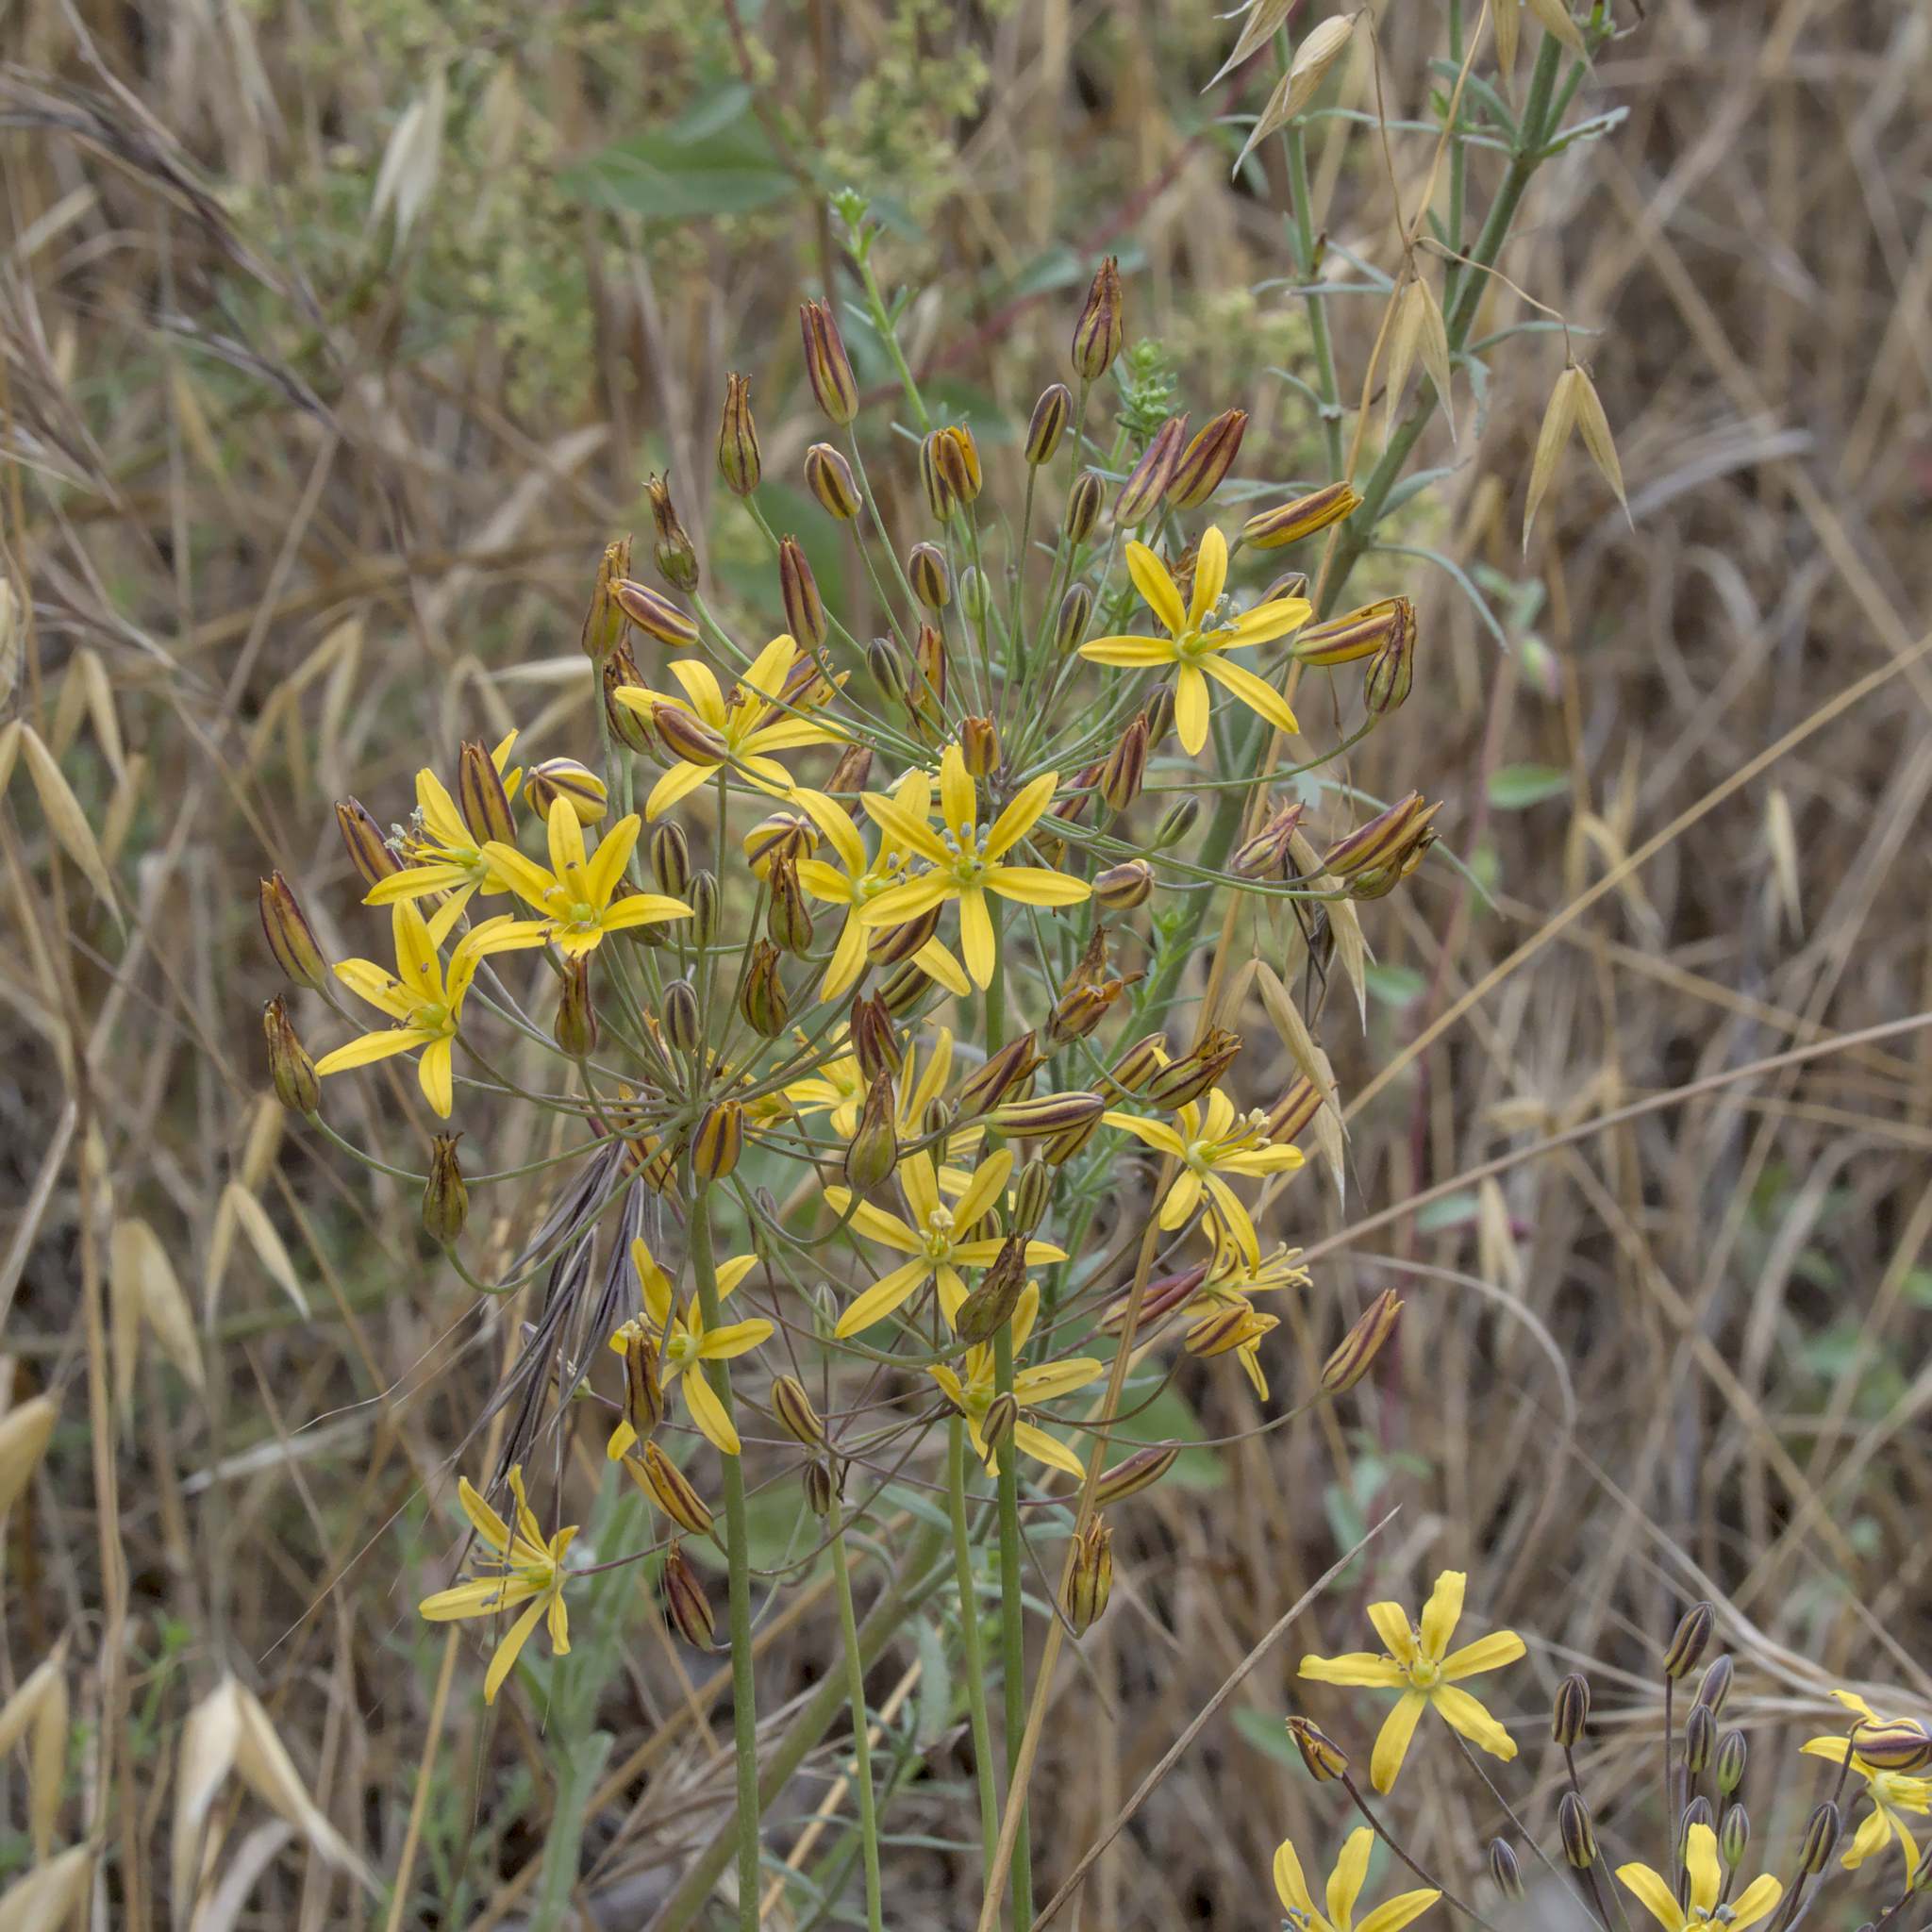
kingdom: Plantae
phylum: Tracheophyta
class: Liliopsida
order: Asparagales
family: Asparagaceae
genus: Bloomeria
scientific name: Bloomeria crocea
